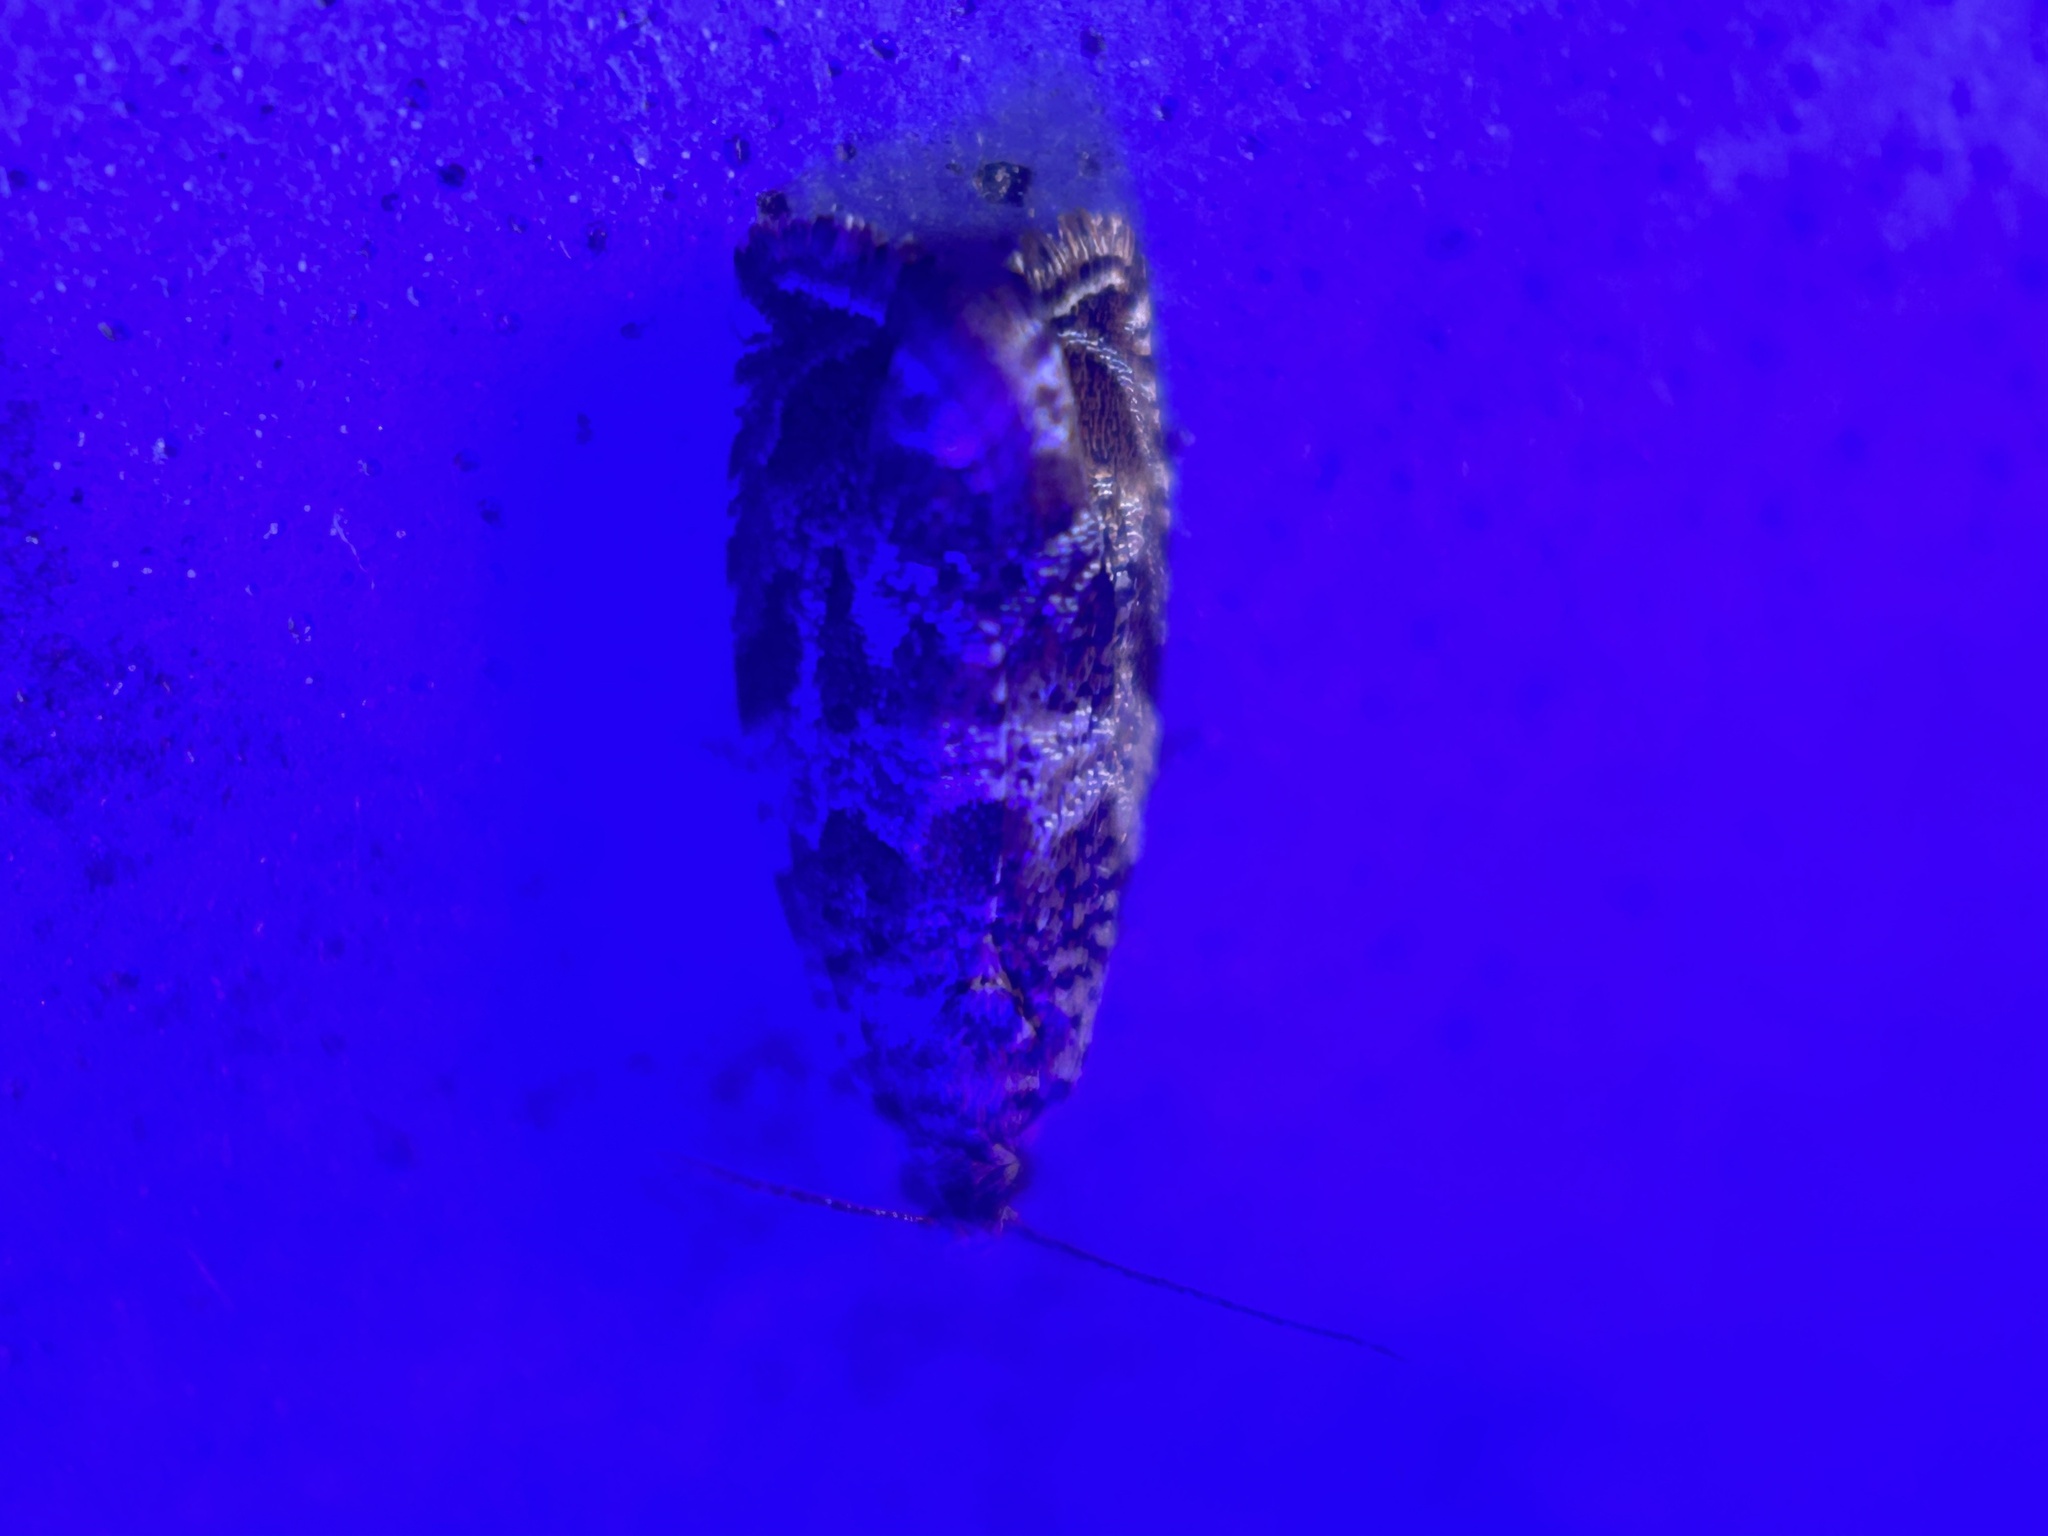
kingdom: Animalia
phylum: Arthropoda
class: Insecta
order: Lepidoptera
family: Tortricidae
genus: Celypha
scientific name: Celypha cespitana
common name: Thyme marble
